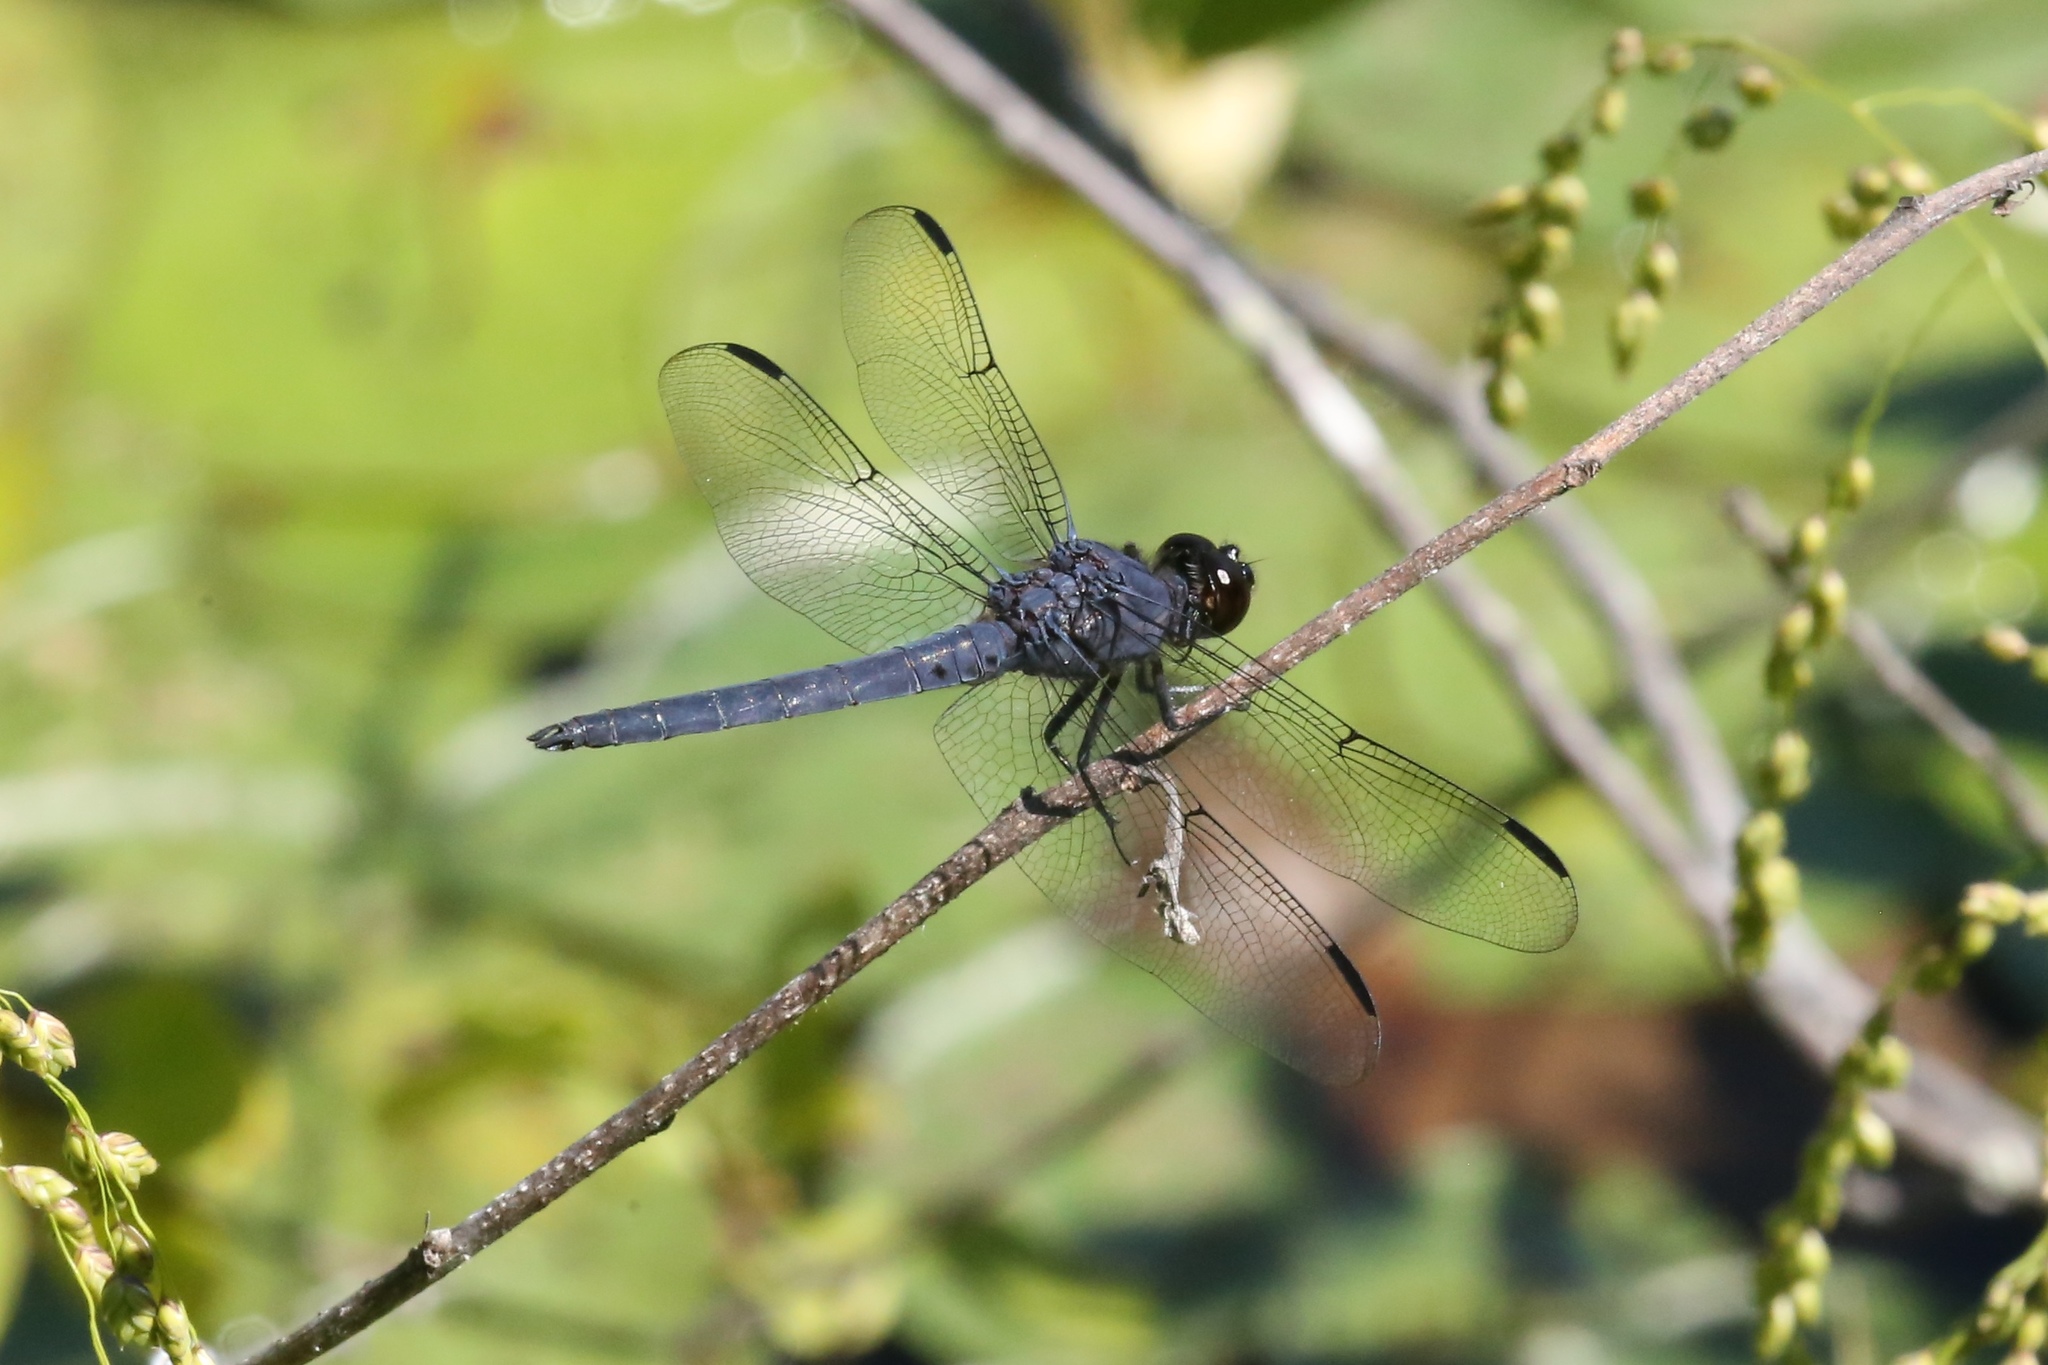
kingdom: Animalia
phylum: Arthropoda
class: Insecta
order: Odonata
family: Libellulidae
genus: Libellula
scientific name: Libellula incesta
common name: Slaty skimmer
